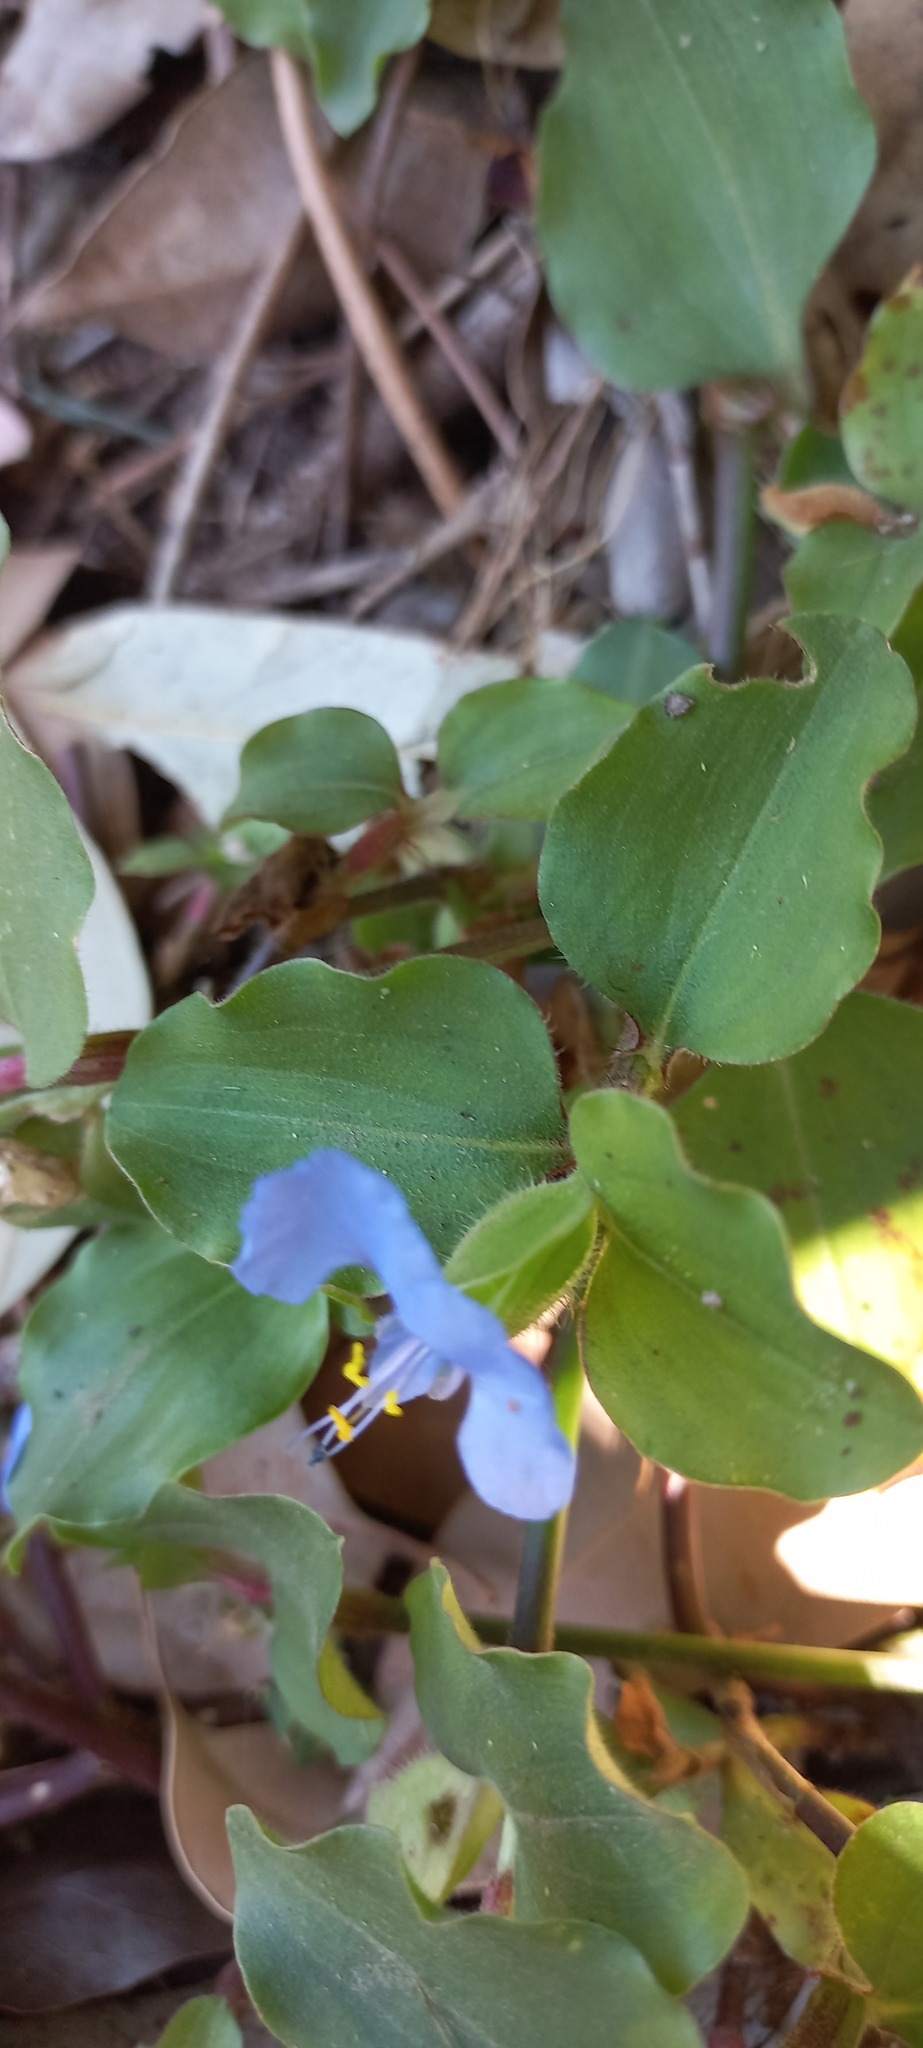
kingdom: Plantae
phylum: Tracheophyta
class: Liliopsida
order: Commelinales
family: Commelinaceae
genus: Commelina
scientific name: Commelina benghalensis
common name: Jio
